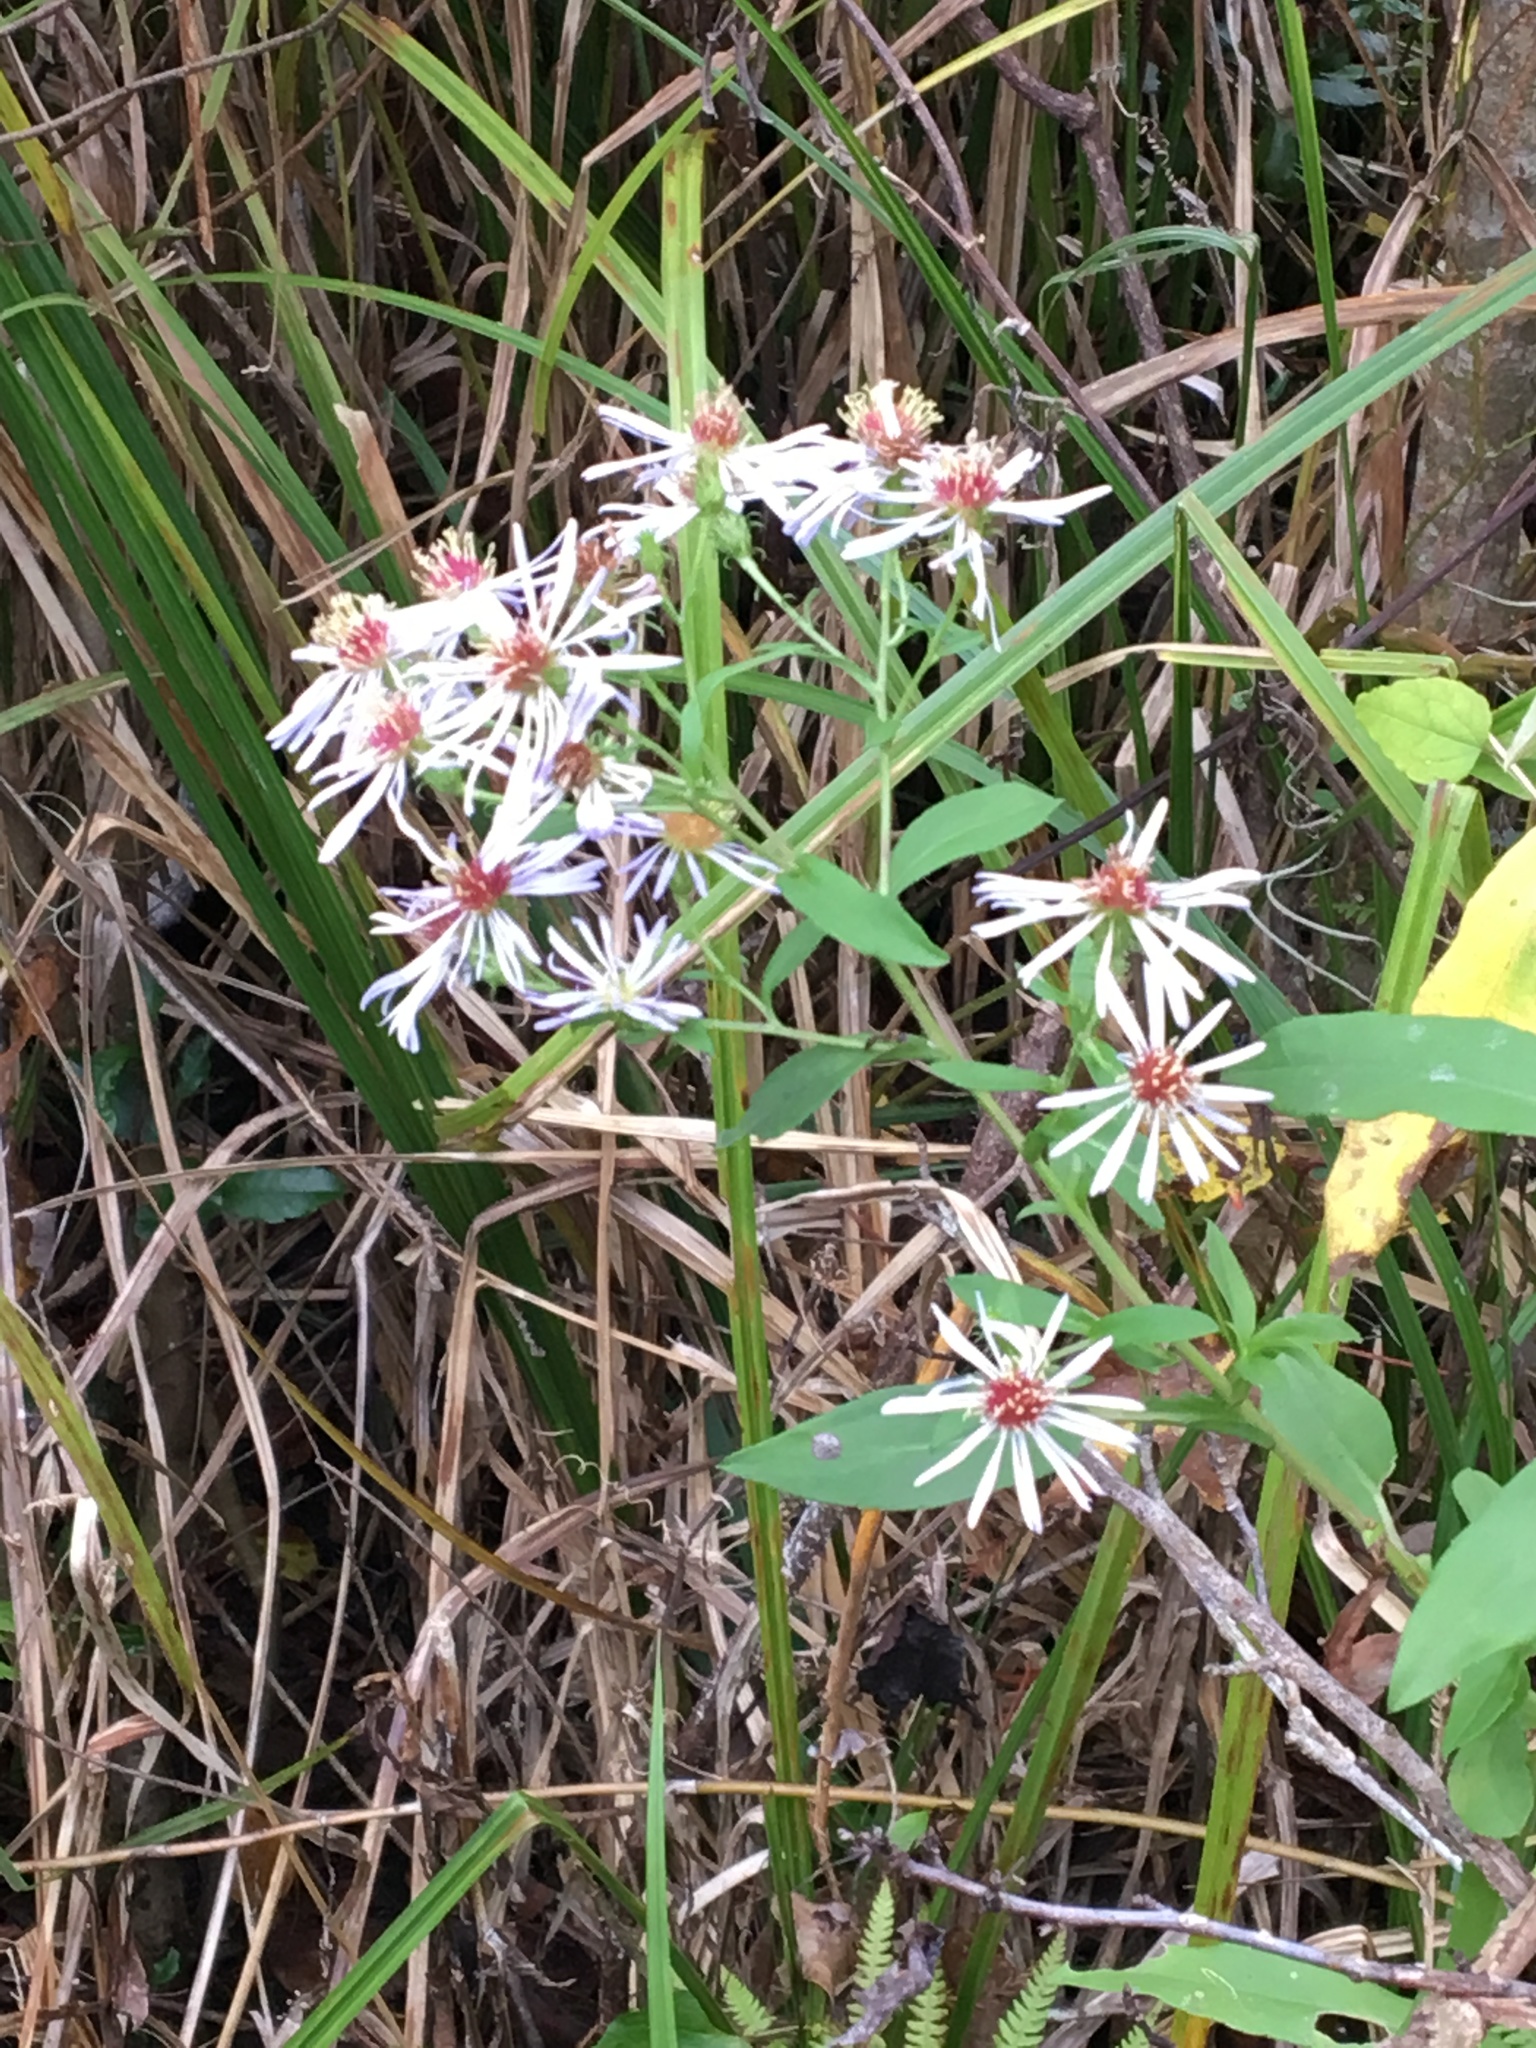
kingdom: Plantae
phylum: Tracheophyta
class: Magnoliopsida
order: Asterales
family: Asteraceae
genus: Symphyotrichum
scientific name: Symphyotrichum lateriflorum
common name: Calico aster
